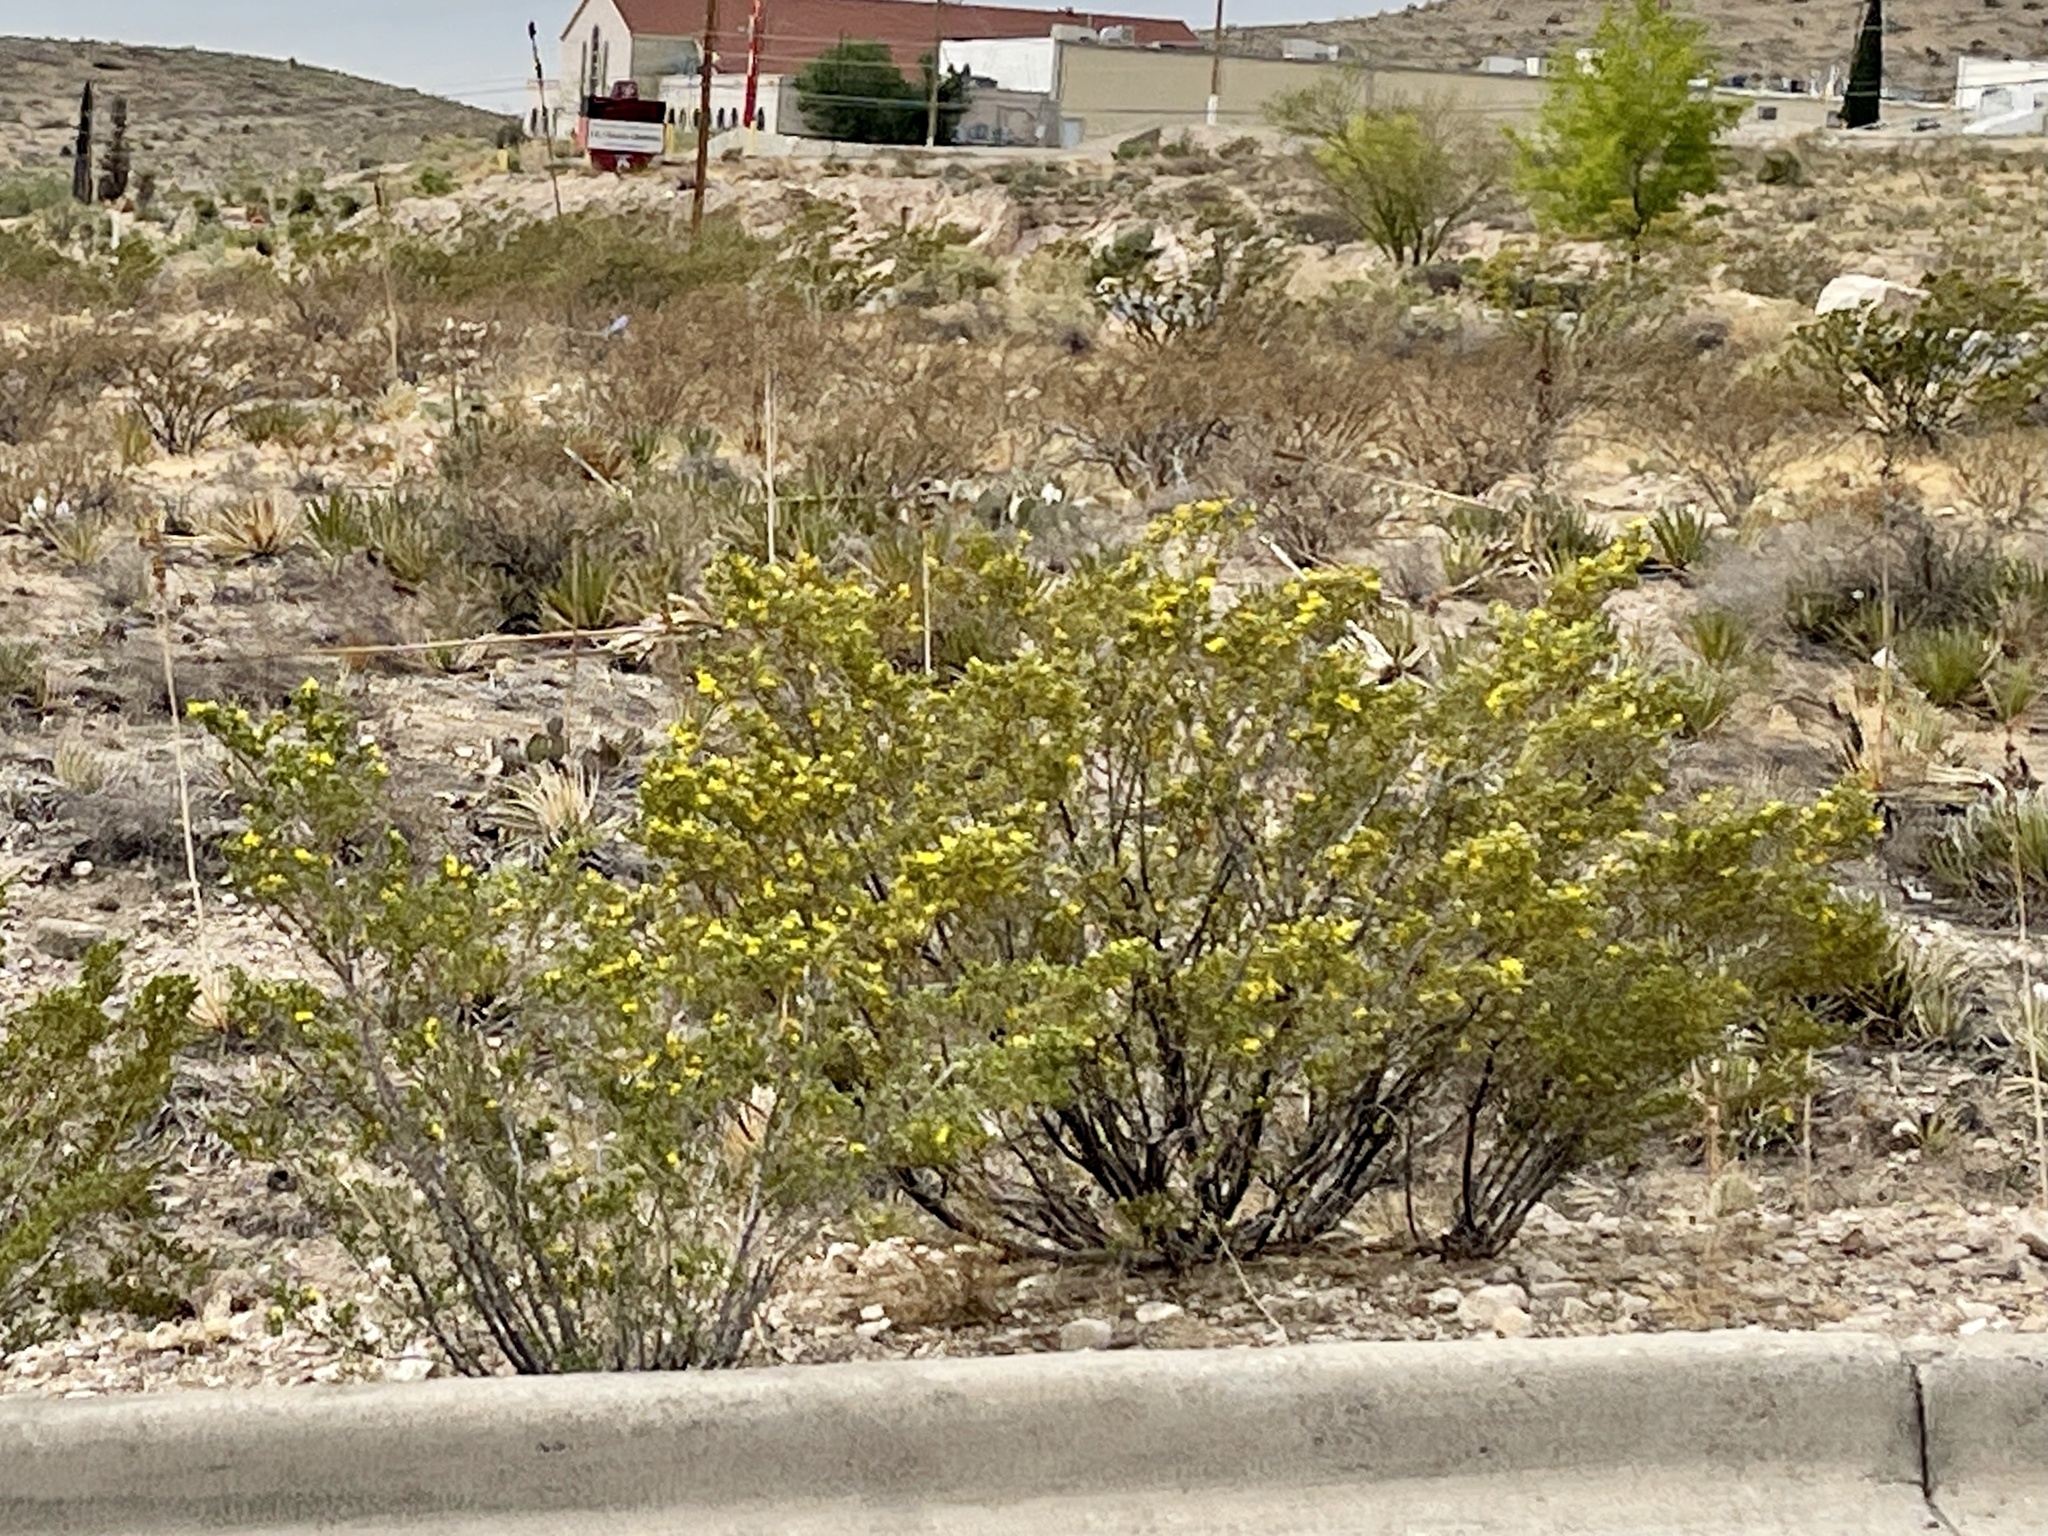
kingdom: Plantae
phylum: Tracheophyta
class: Magnoliopsida
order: Zygophyllales
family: Zygophyllaceae
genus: Larrea
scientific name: Larrea tridentata
